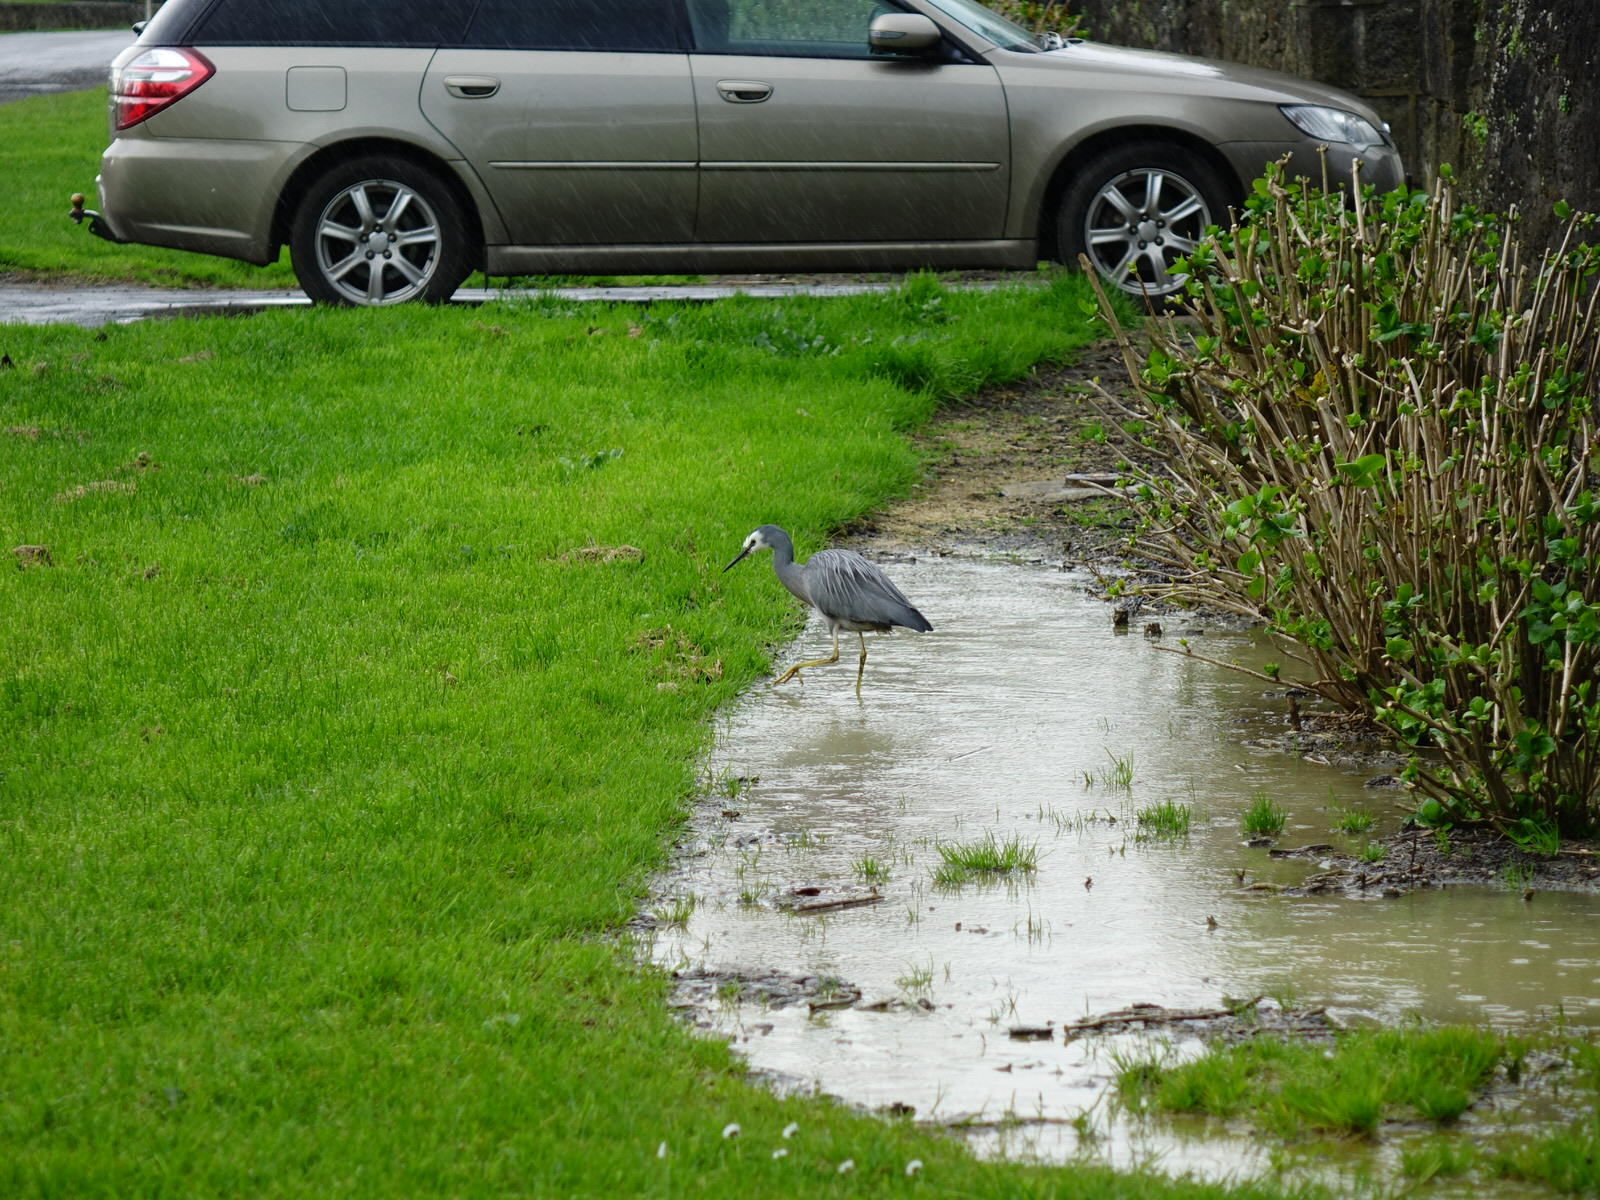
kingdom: Animalia
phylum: Chordata
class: Aves
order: Pelecaniformes
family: Ardeidae
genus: Egretta
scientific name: Egretta novaehollandiae
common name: White-faced heron
